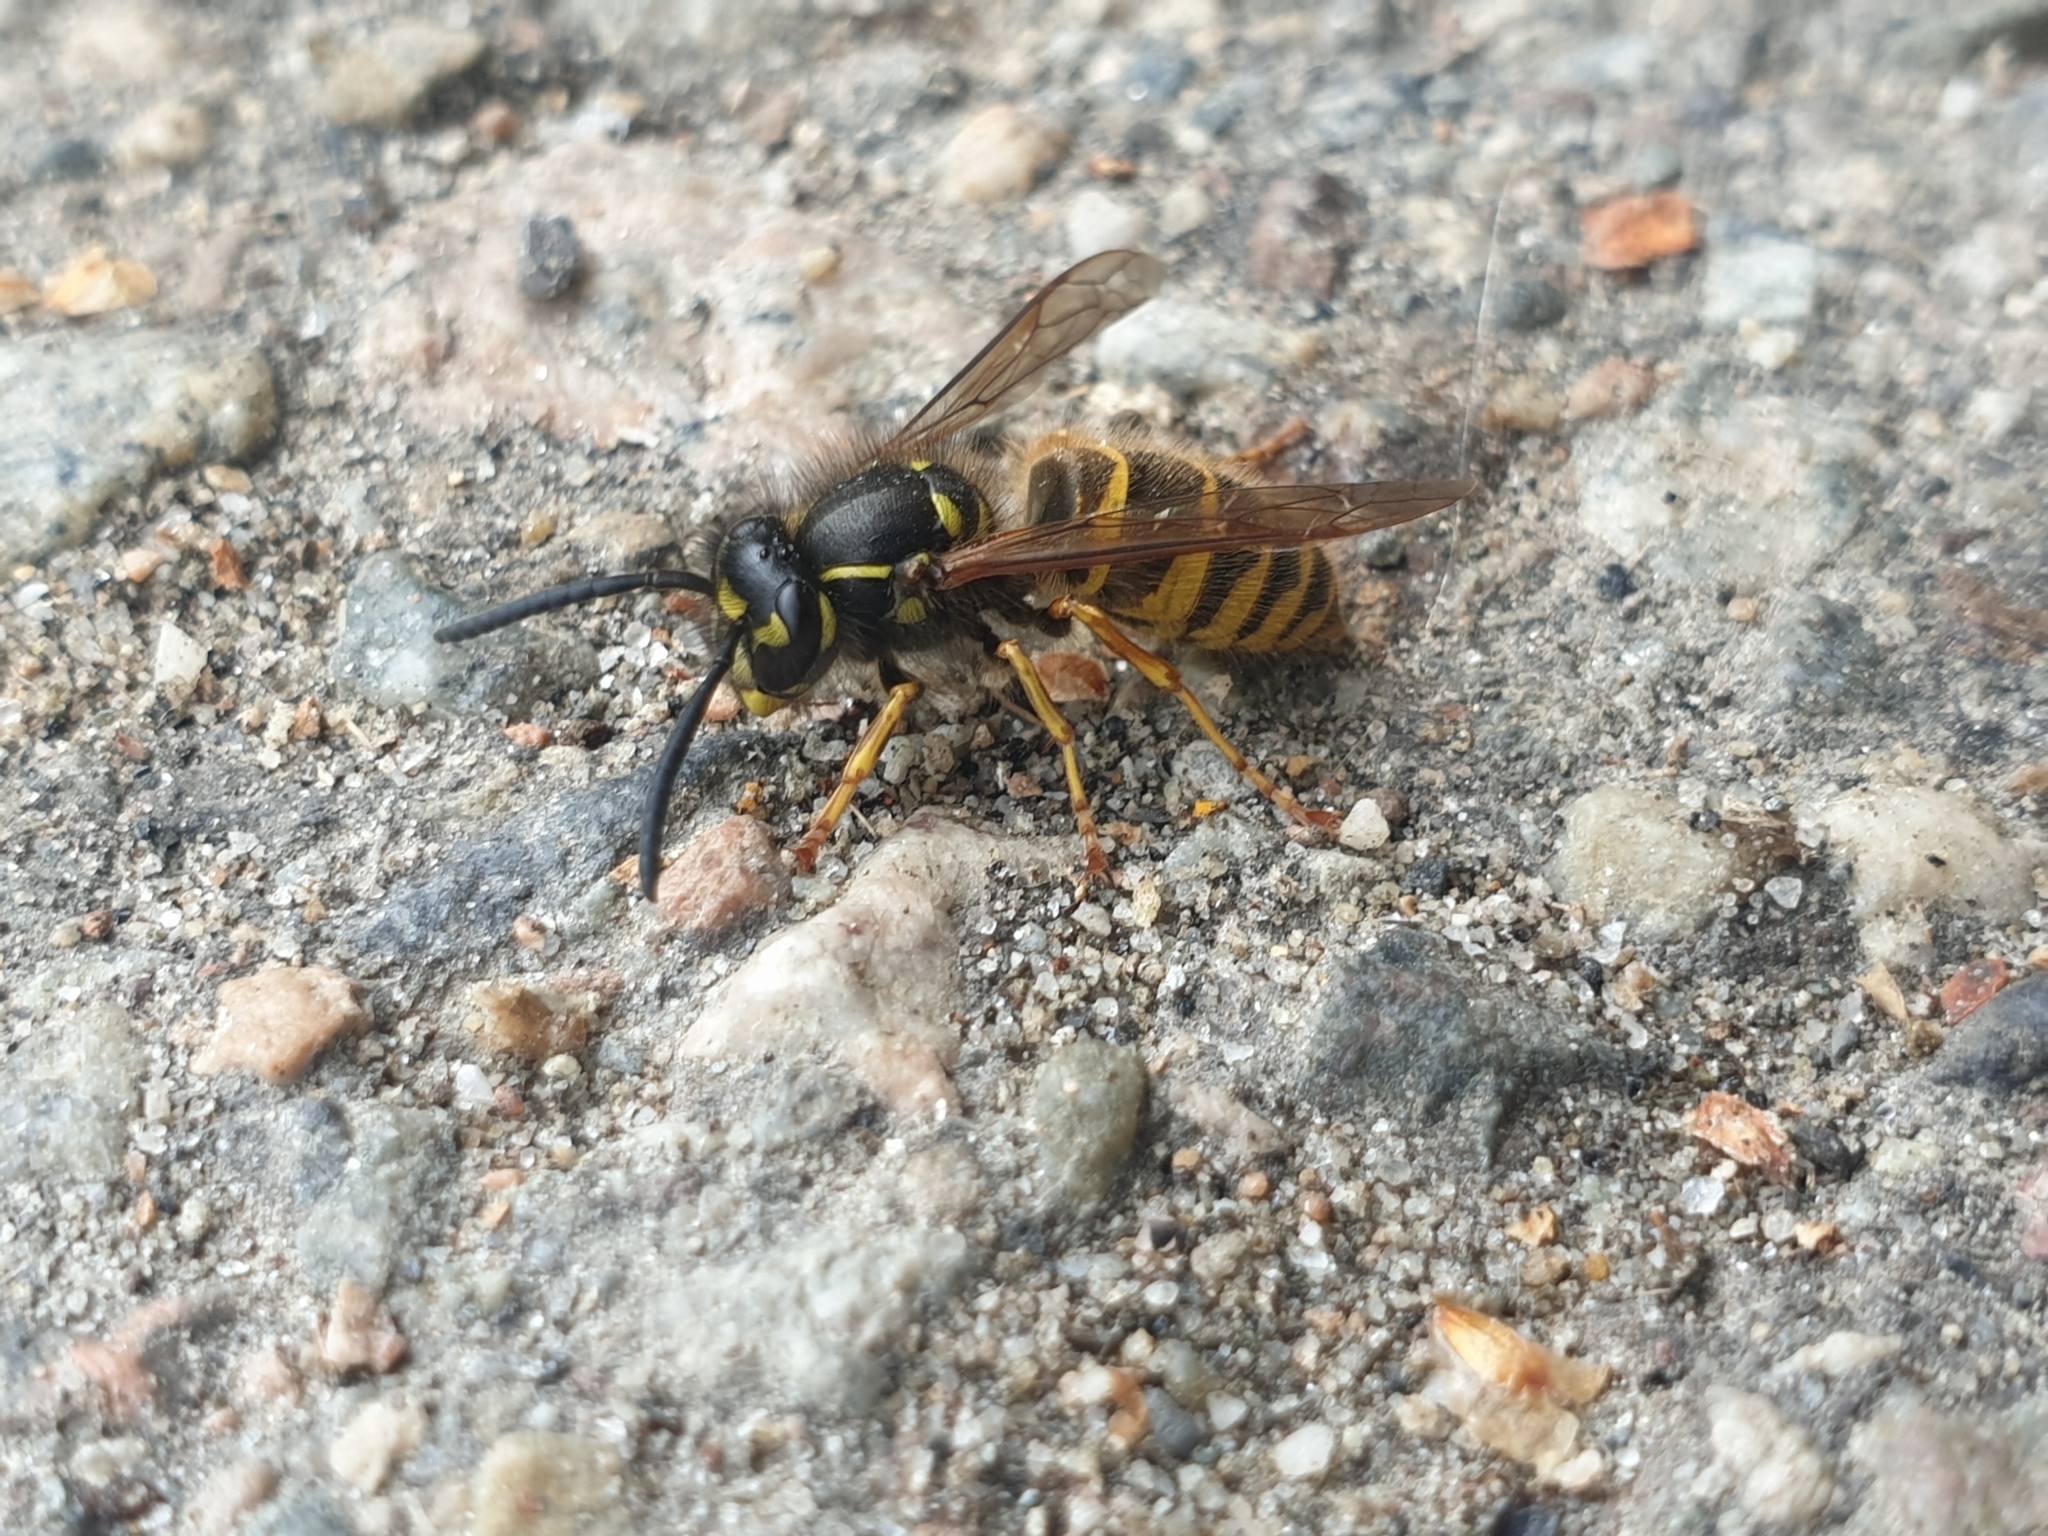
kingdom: Animalia
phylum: Arthropoda
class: Insecta
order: Hymenoptera
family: Vespidae
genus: Vespula
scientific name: Vespula vulgaris
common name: Common wasp
